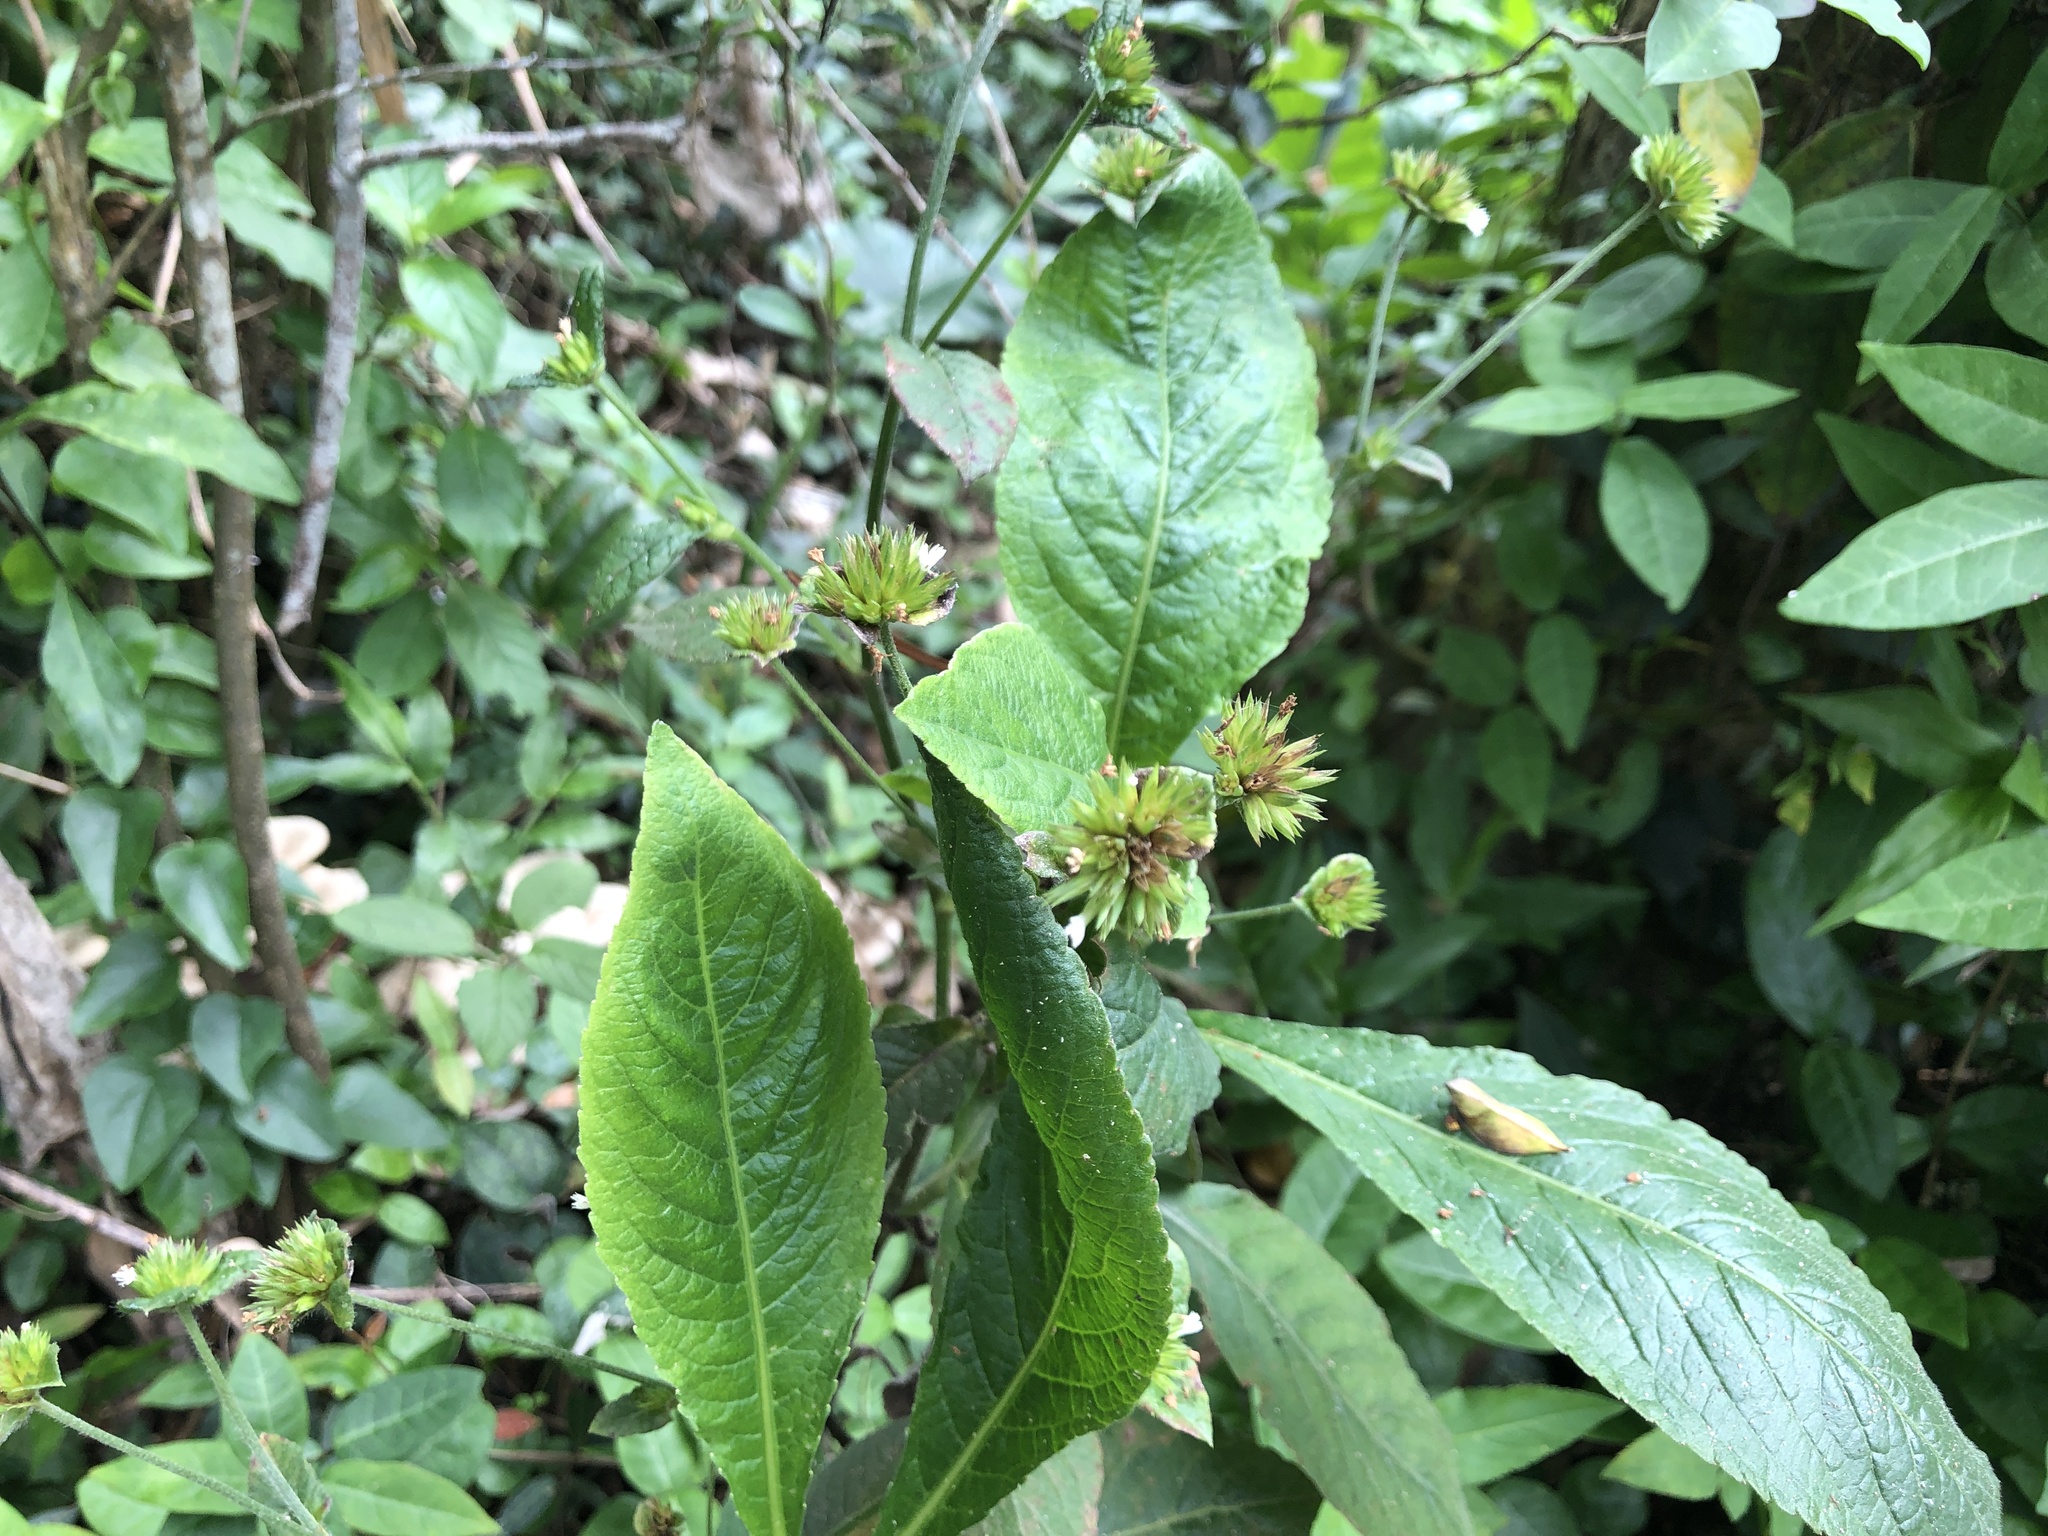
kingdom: Plantae
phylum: Tracheophyta
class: Magnoliopsida
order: Asterales
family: Asteraceae
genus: Elephantopus
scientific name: Elephantopus mollis
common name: Soft elephantsfoot
